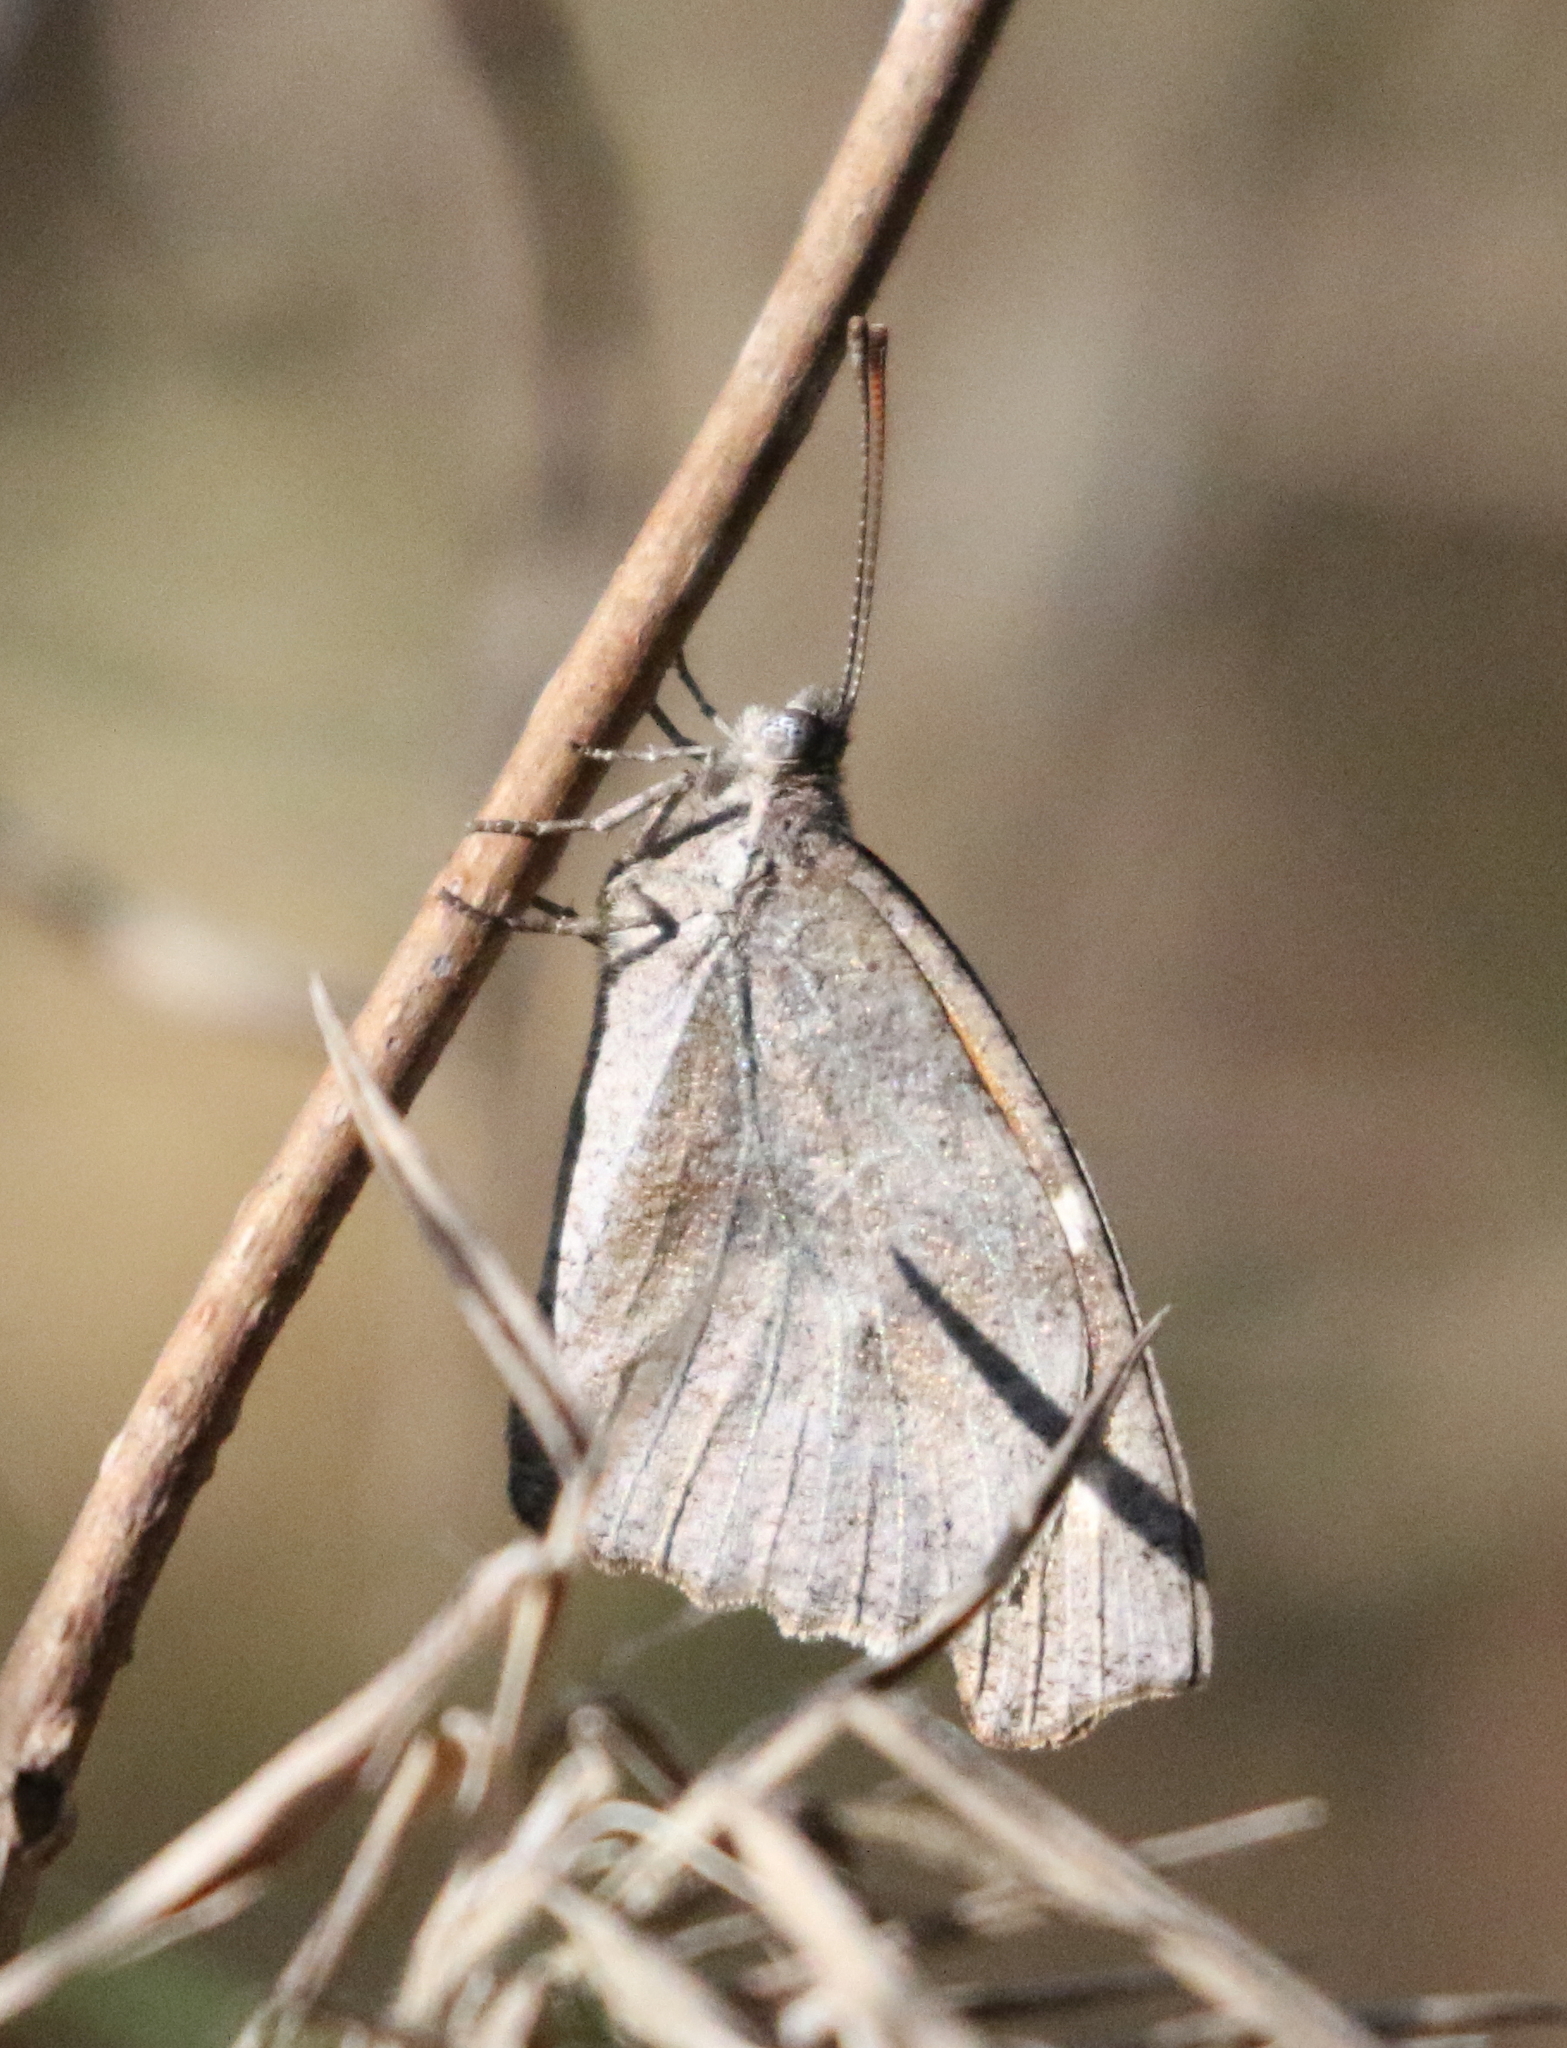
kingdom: Animalia
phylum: Arthropoda
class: Insecta
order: Lepidoptera
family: Nymphalidae
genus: Libytheana
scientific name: Libytheana carinenta
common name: American snout
